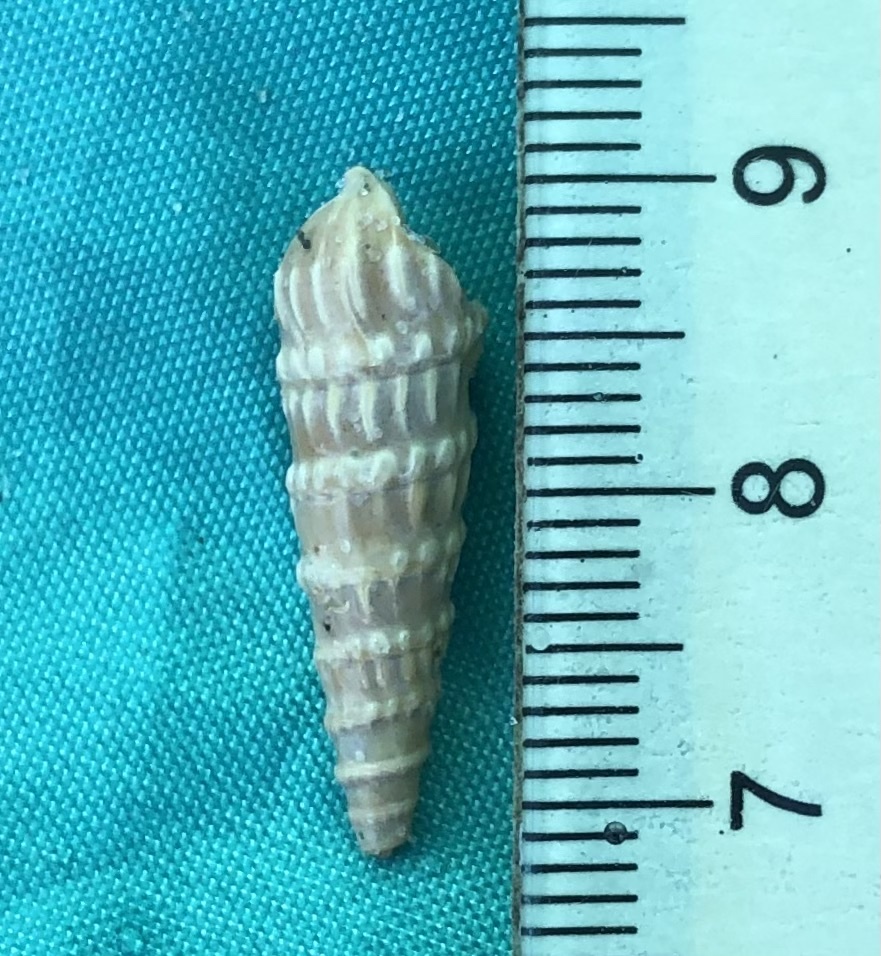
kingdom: Animalia
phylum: Mollusca
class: Gastropoda
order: Neogastropoda
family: Terebridae
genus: Neoterebra
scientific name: Neoterebra dislocata
